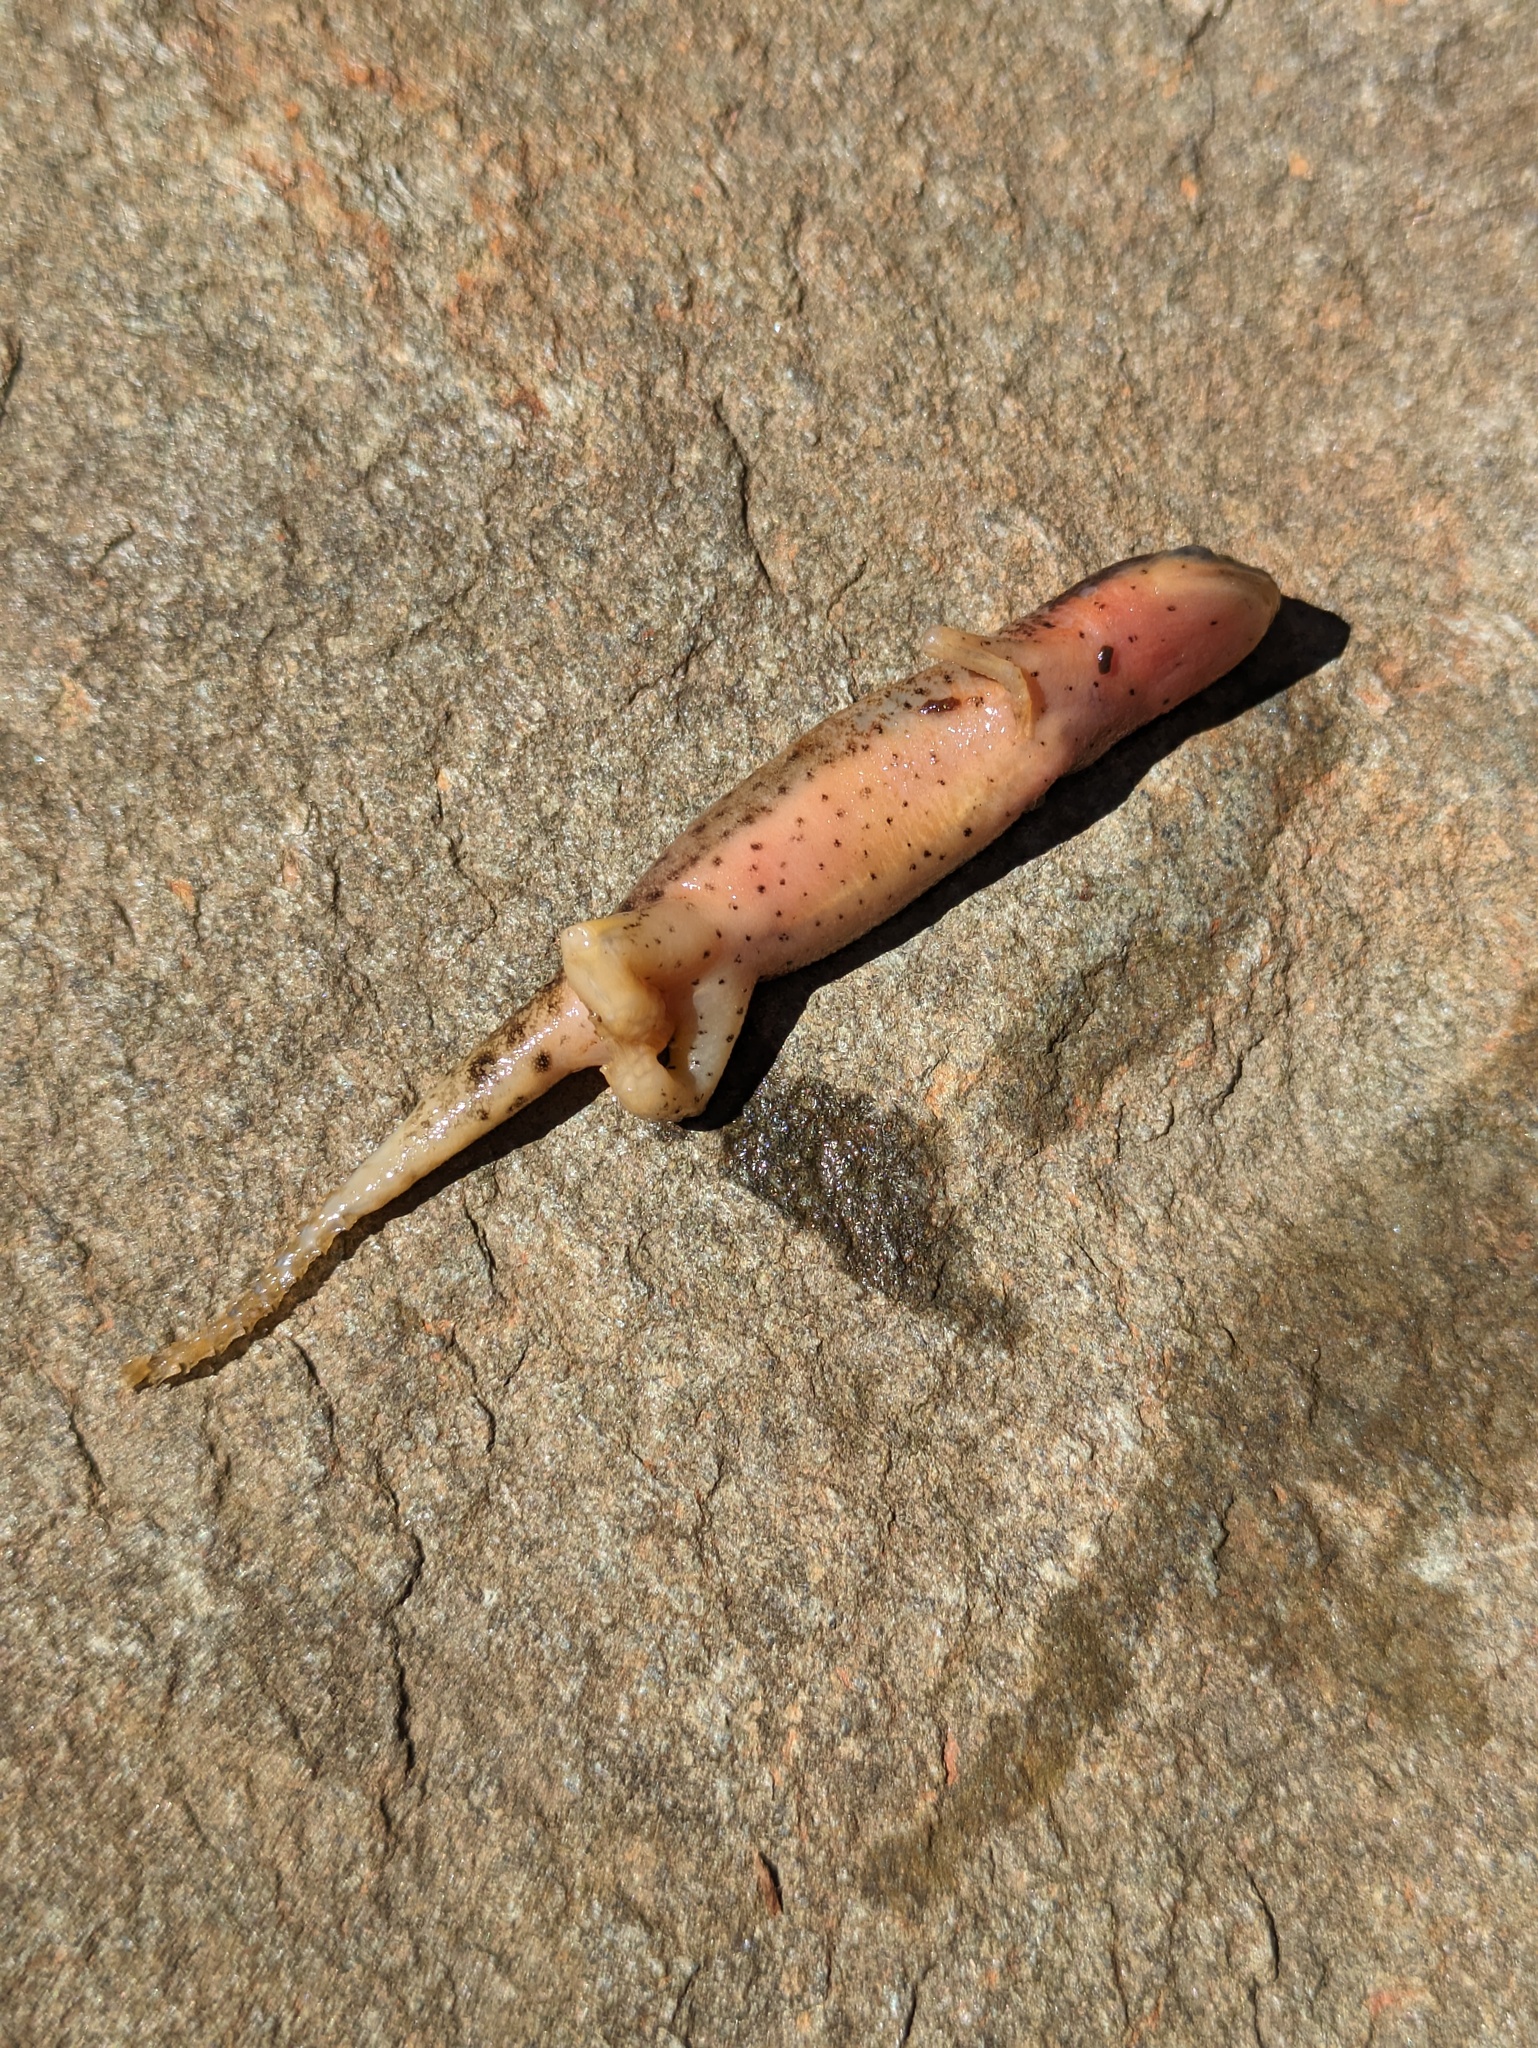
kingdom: Animalia
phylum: Chordata
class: Amphibia
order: Caudata
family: Salamandridae
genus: Notophthalmus
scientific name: Notophthalmus viridescens
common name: Eastern newt
